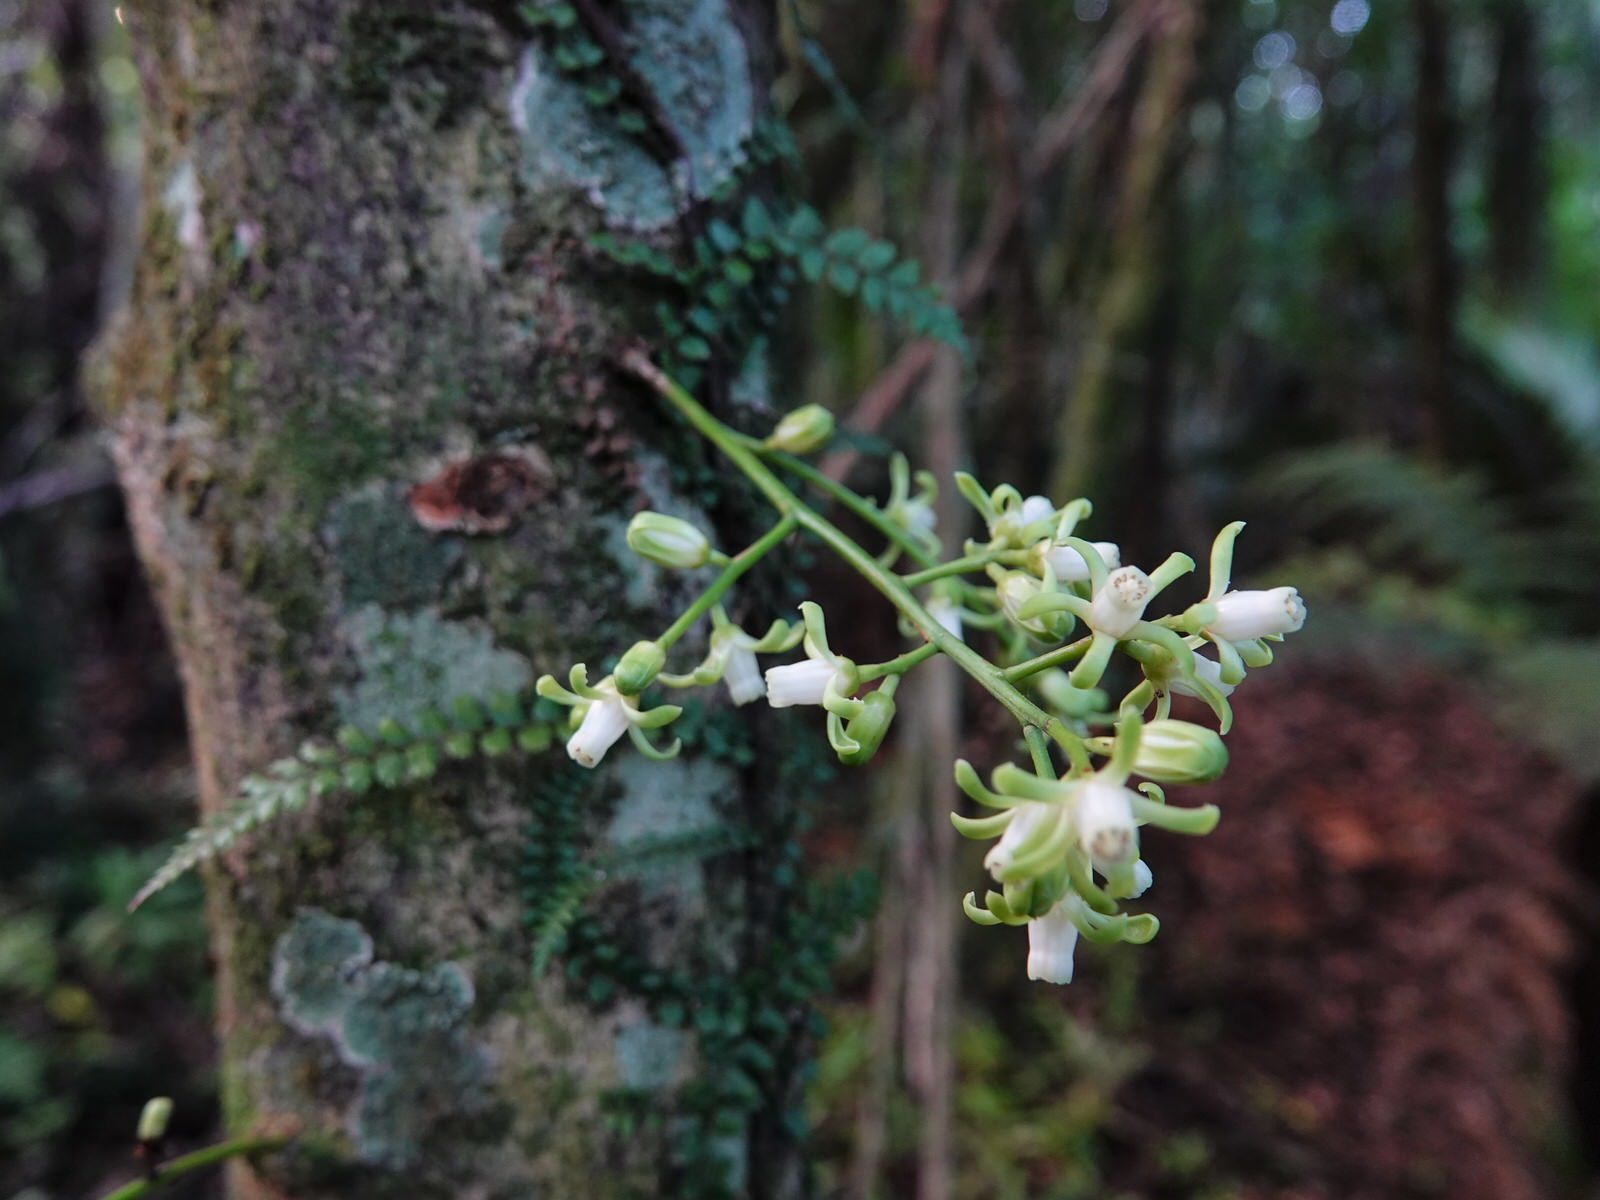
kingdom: Plantae
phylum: Tracheophyta
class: Magnoliopsida
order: Sapindales
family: Meliaceae
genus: Didymocheton
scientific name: Didymocheton spectabilis
